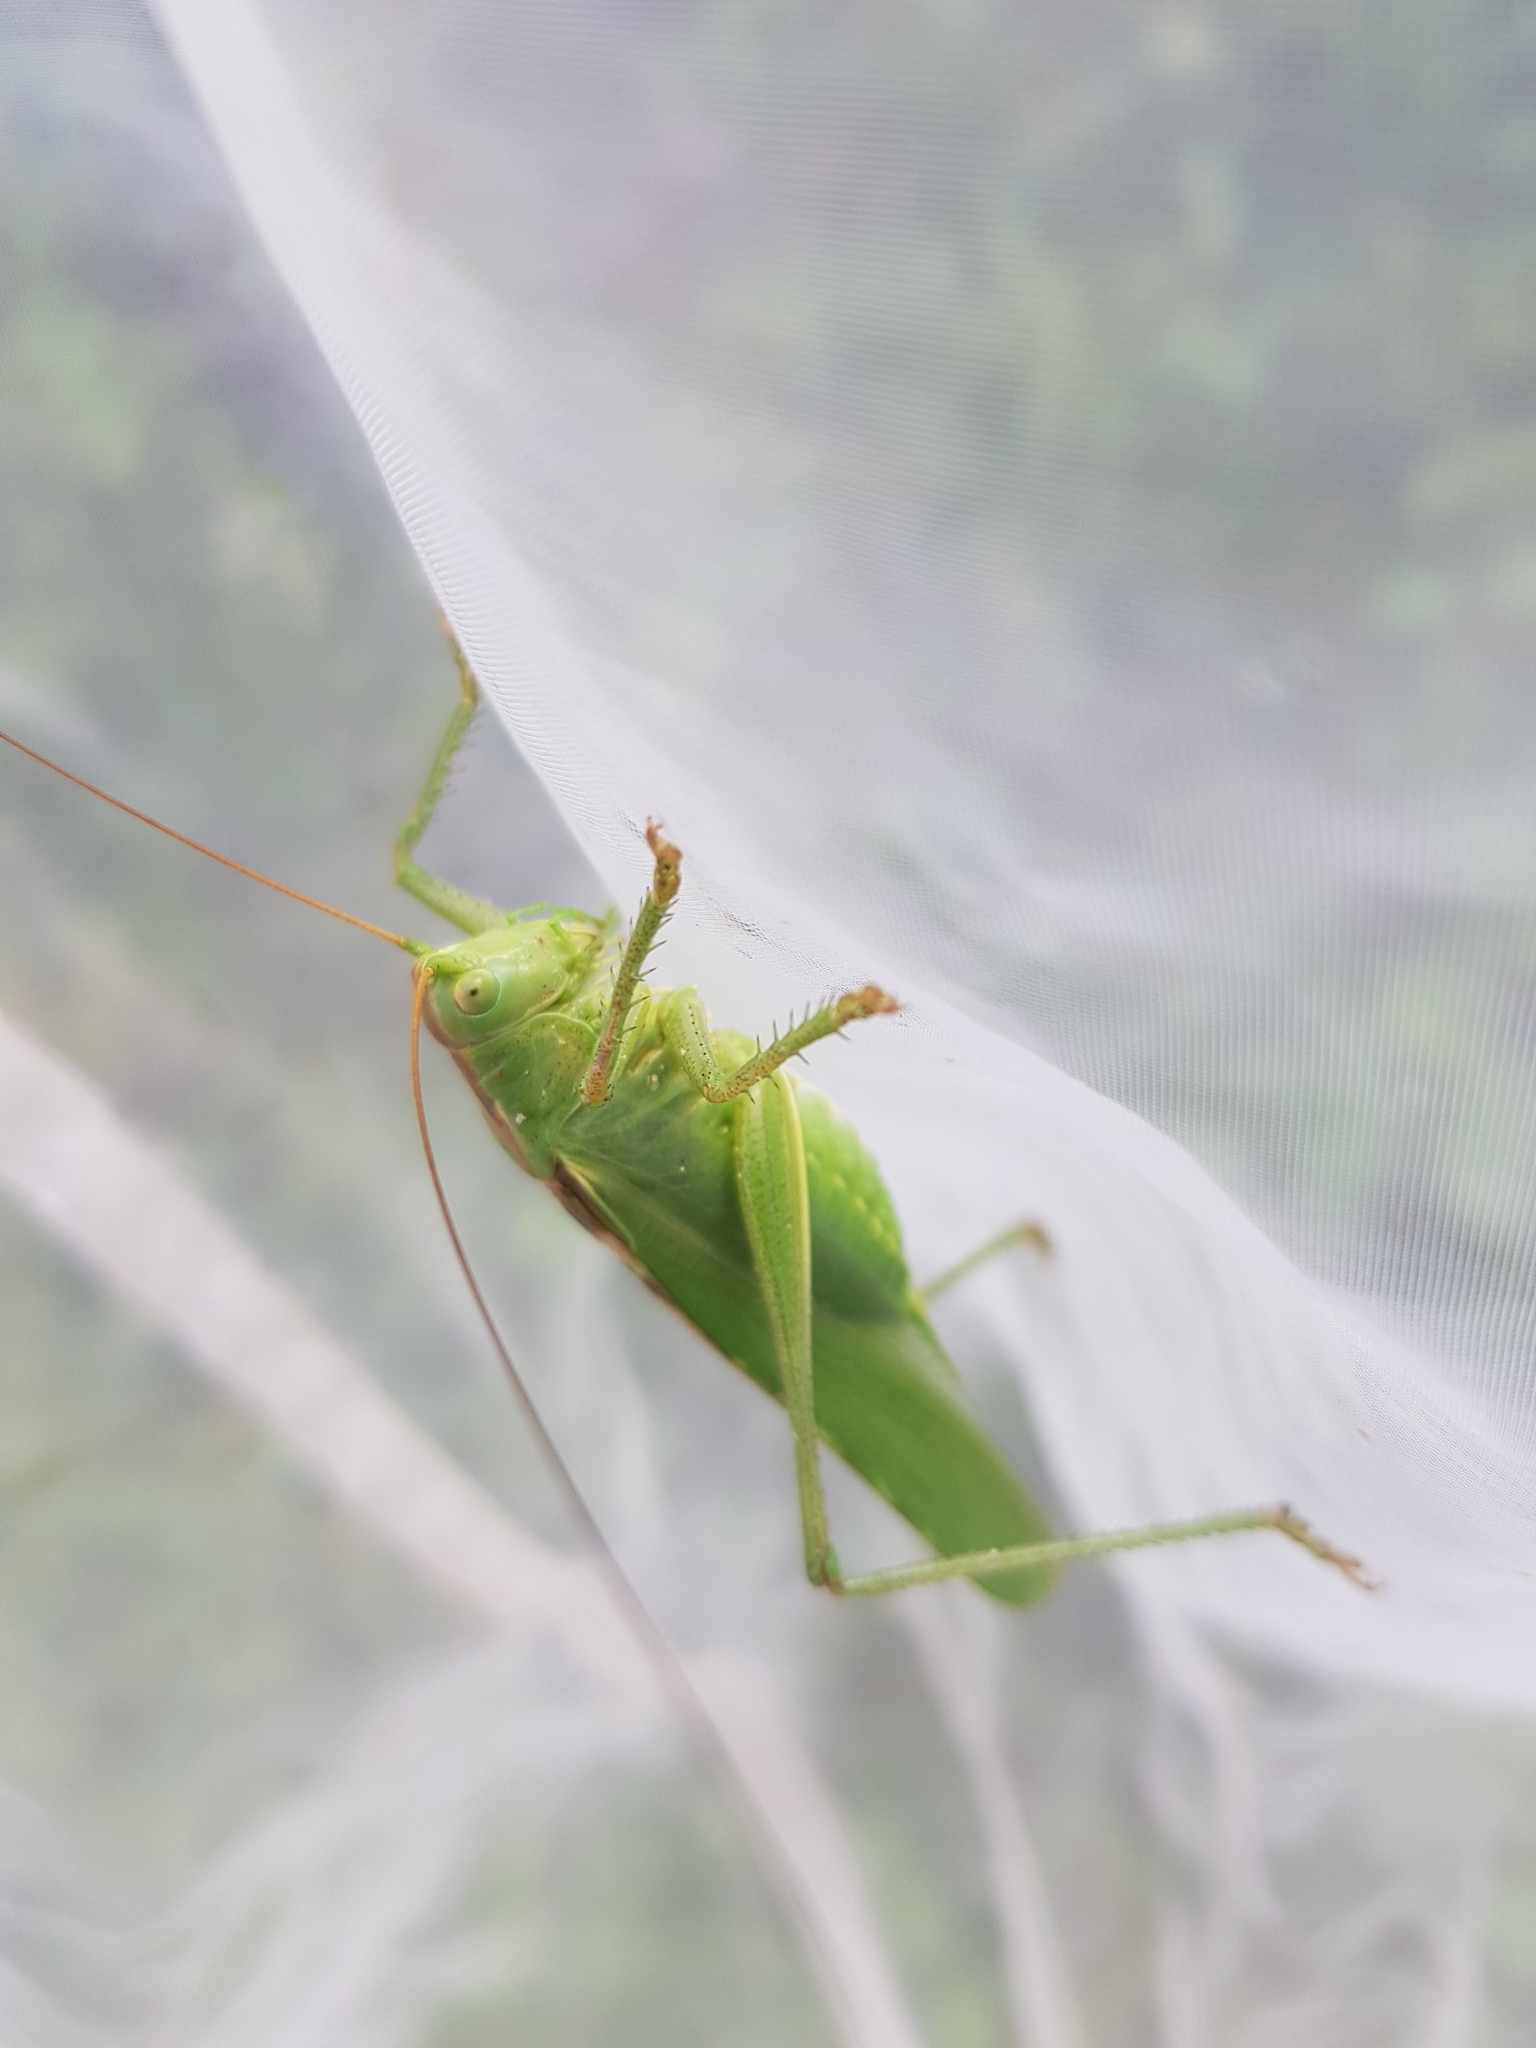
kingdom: Animalia
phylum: Arthropoda
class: Insecta
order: Orthoptera
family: Tettigoniidae
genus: Tettigonia
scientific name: Tettigonia viridissima
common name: Great green bush-cricket
